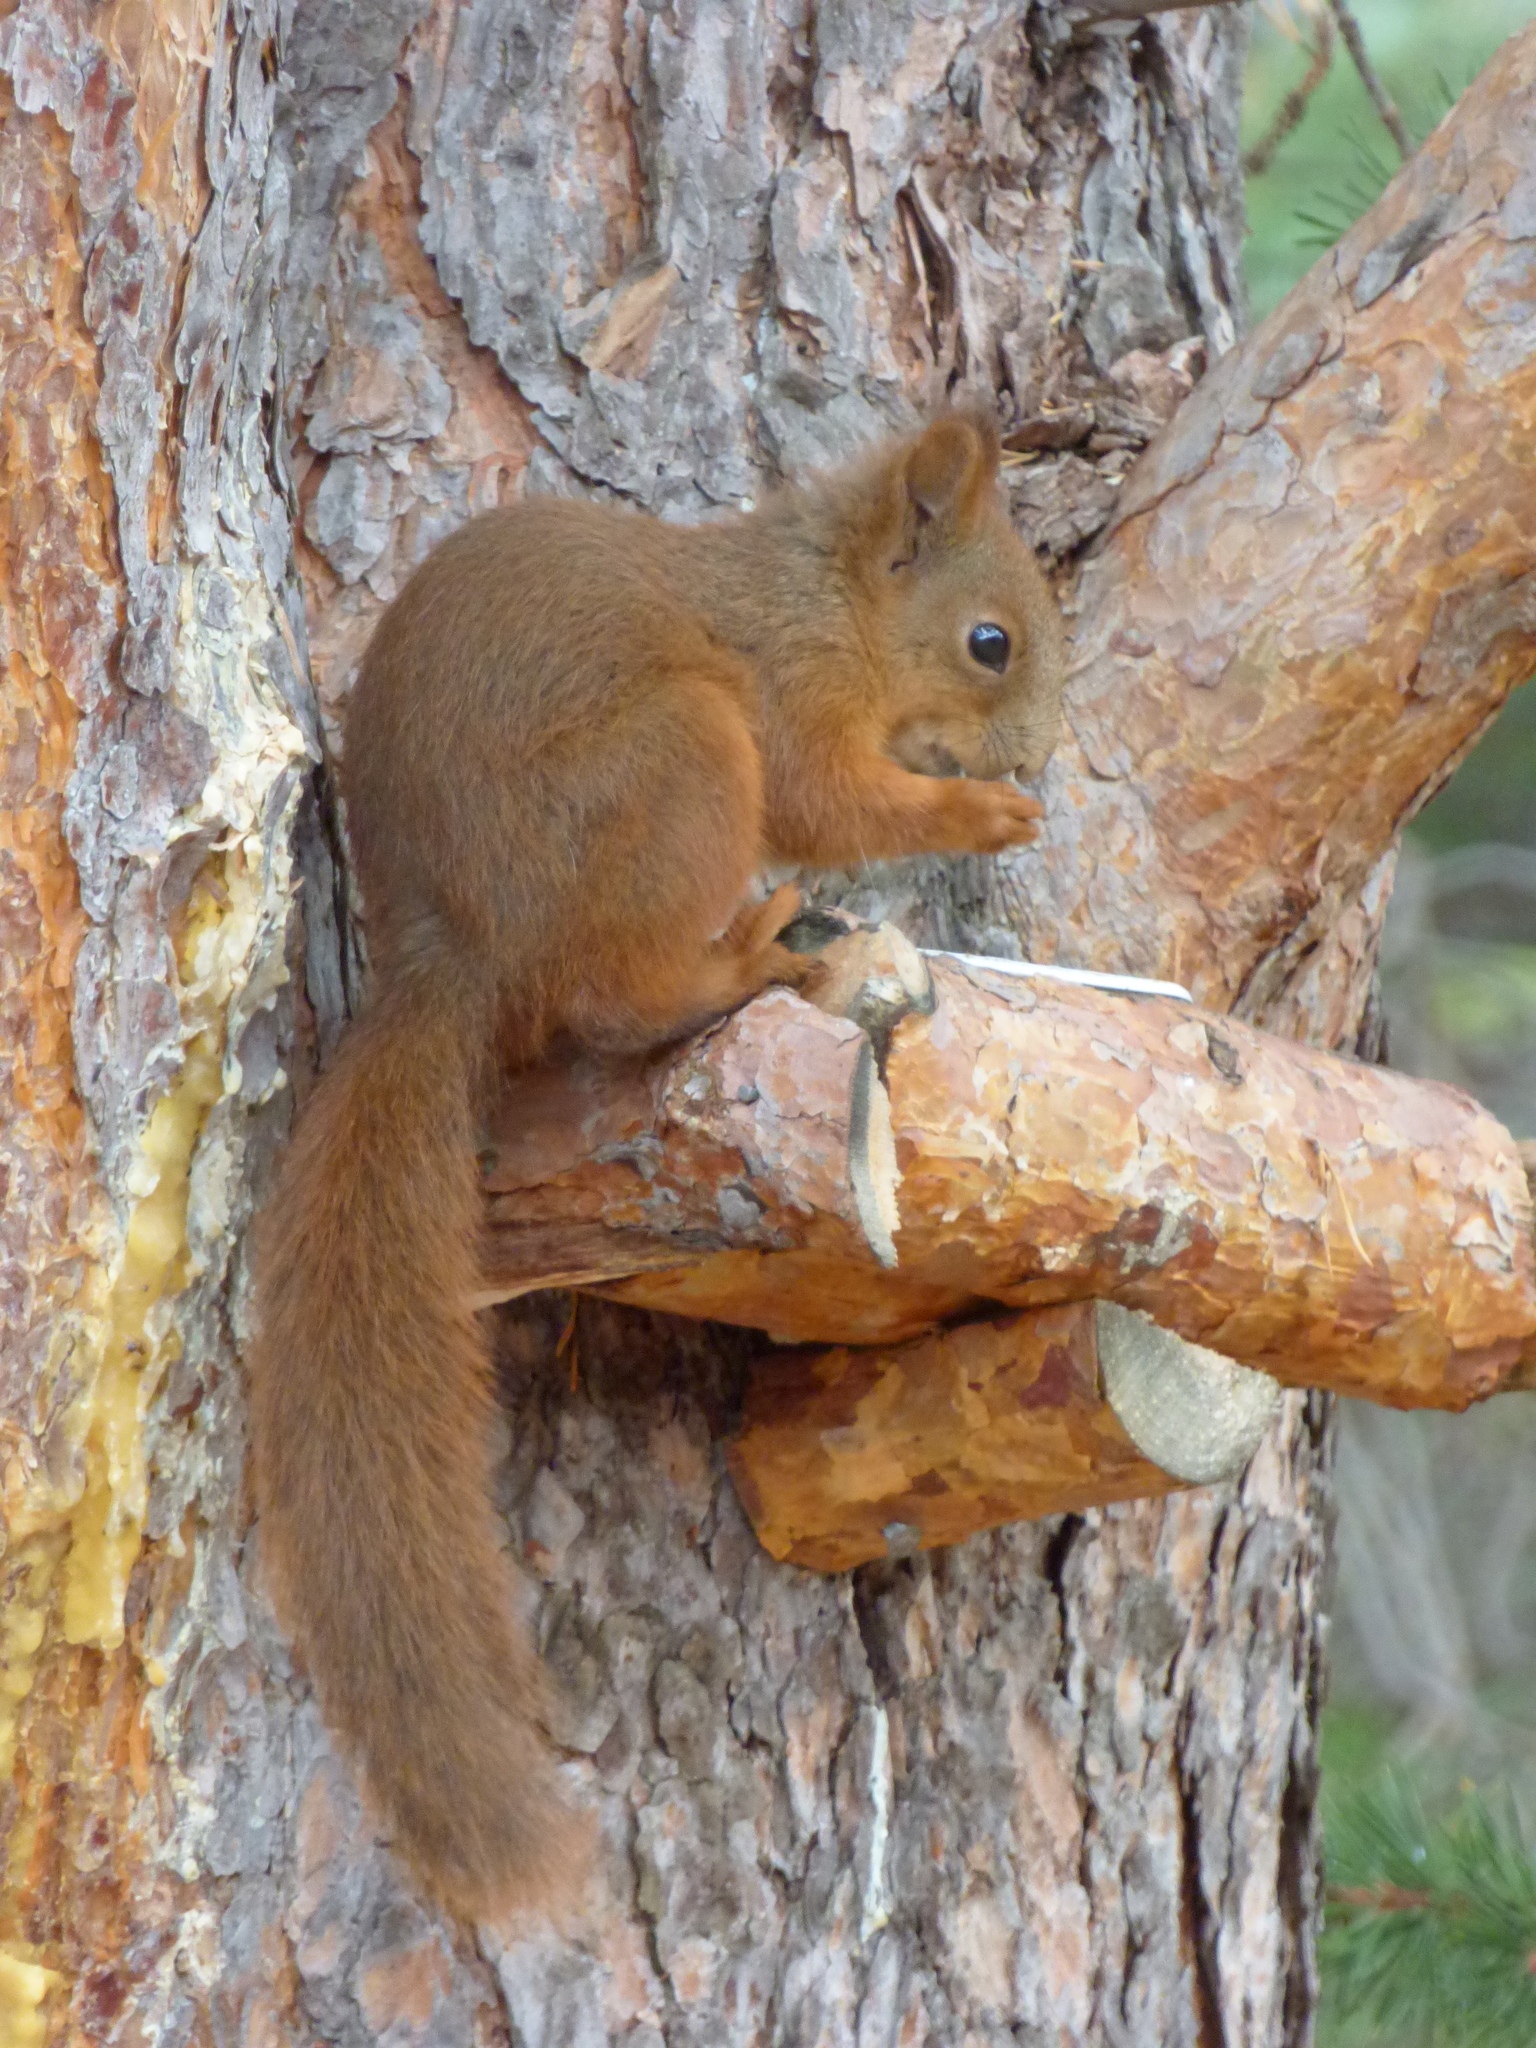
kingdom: Animalia
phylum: Chordata
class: Mammalia
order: Rodentia
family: Sciuridae
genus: Sciurus
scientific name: Sciurus vulgaris
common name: Eurasian red squirrel
